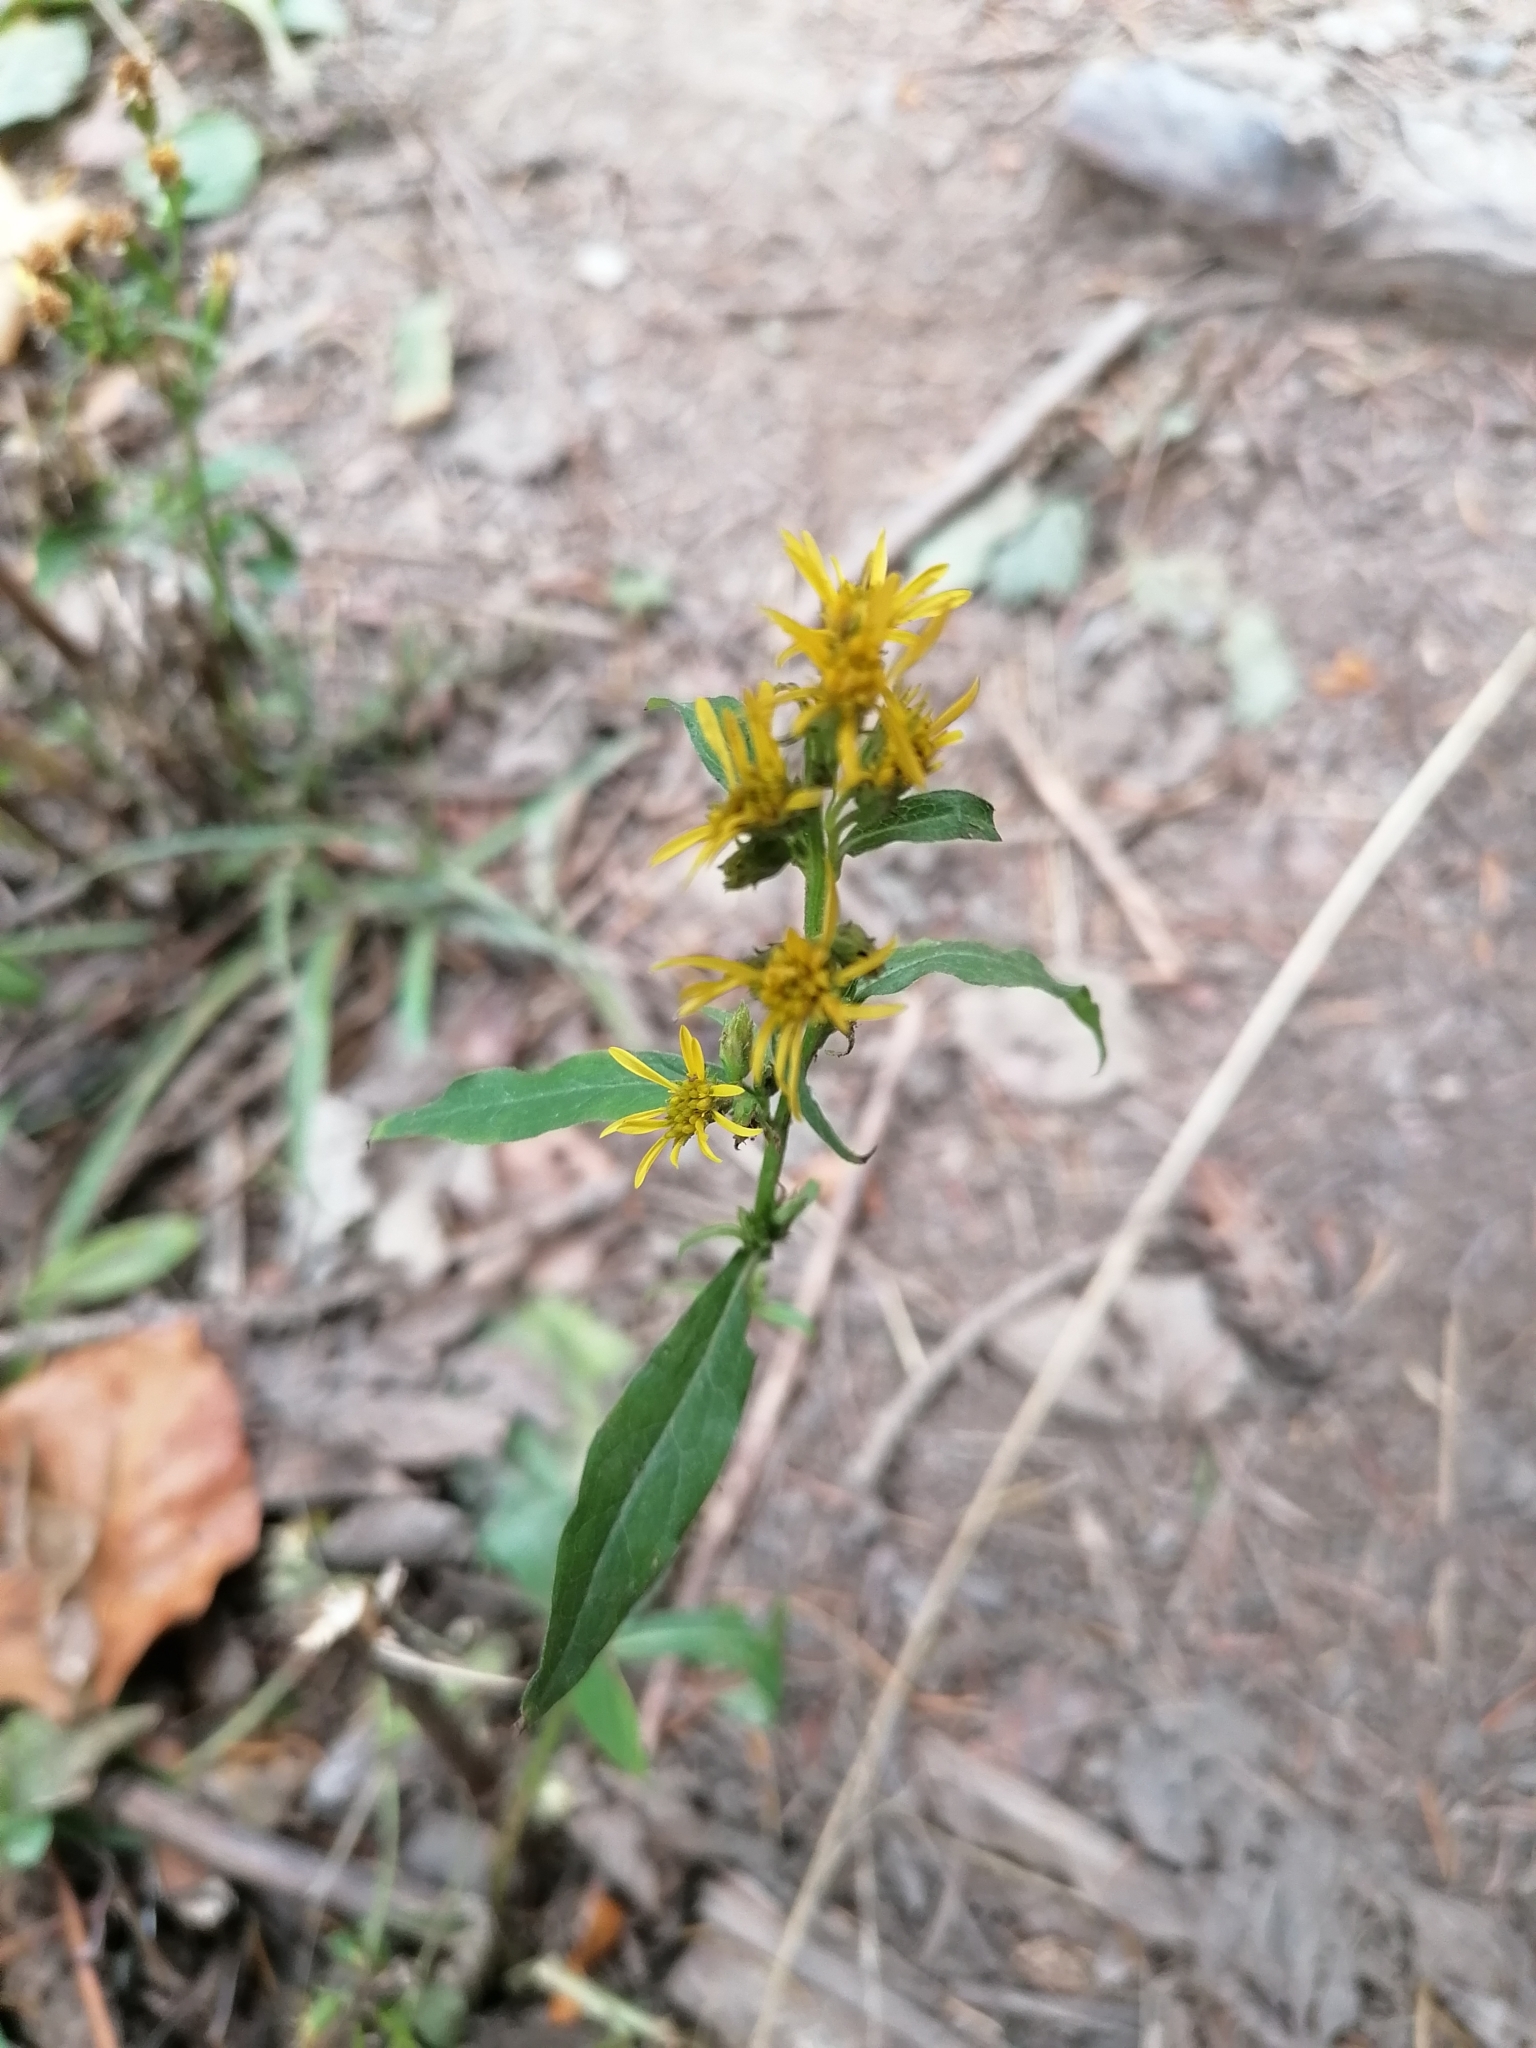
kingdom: Plantae
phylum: Tracheophyta
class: Magnoliopsida
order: Asterales
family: Asteraceae
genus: Solidago
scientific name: Solidago virgaurea
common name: Goldenrod
